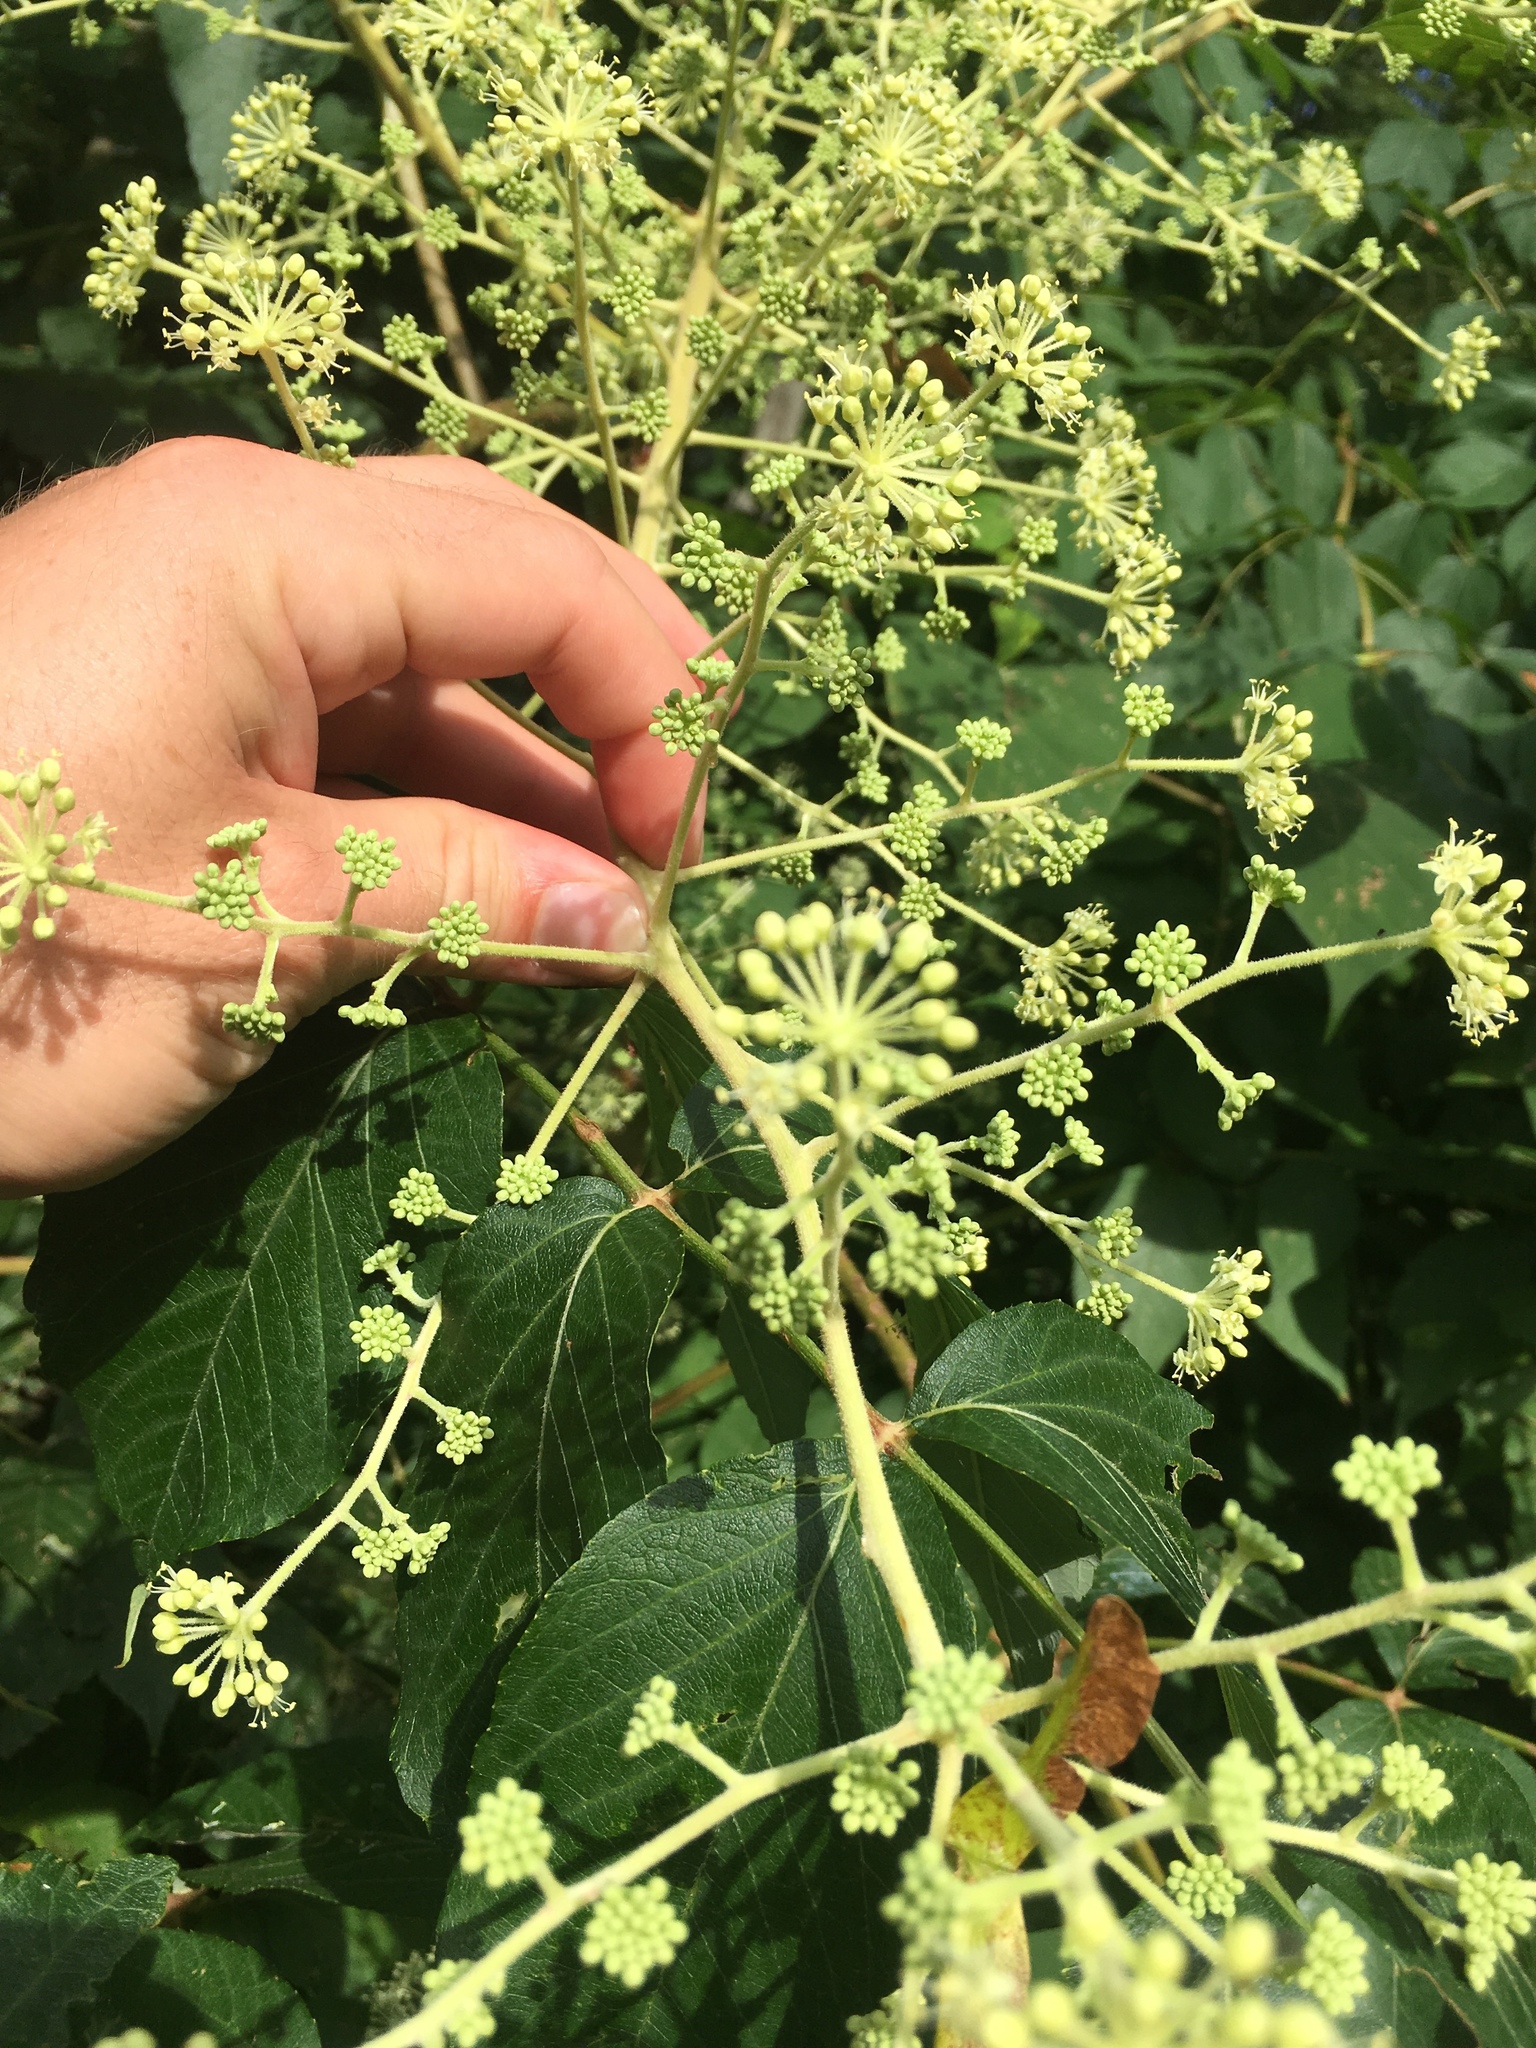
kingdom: Plantae
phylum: Tracheophyta
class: Magnoliopsida
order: Apiales
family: Araliaceae
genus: Aralia
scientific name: Aralia elata
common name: Japanese angelica-tree
